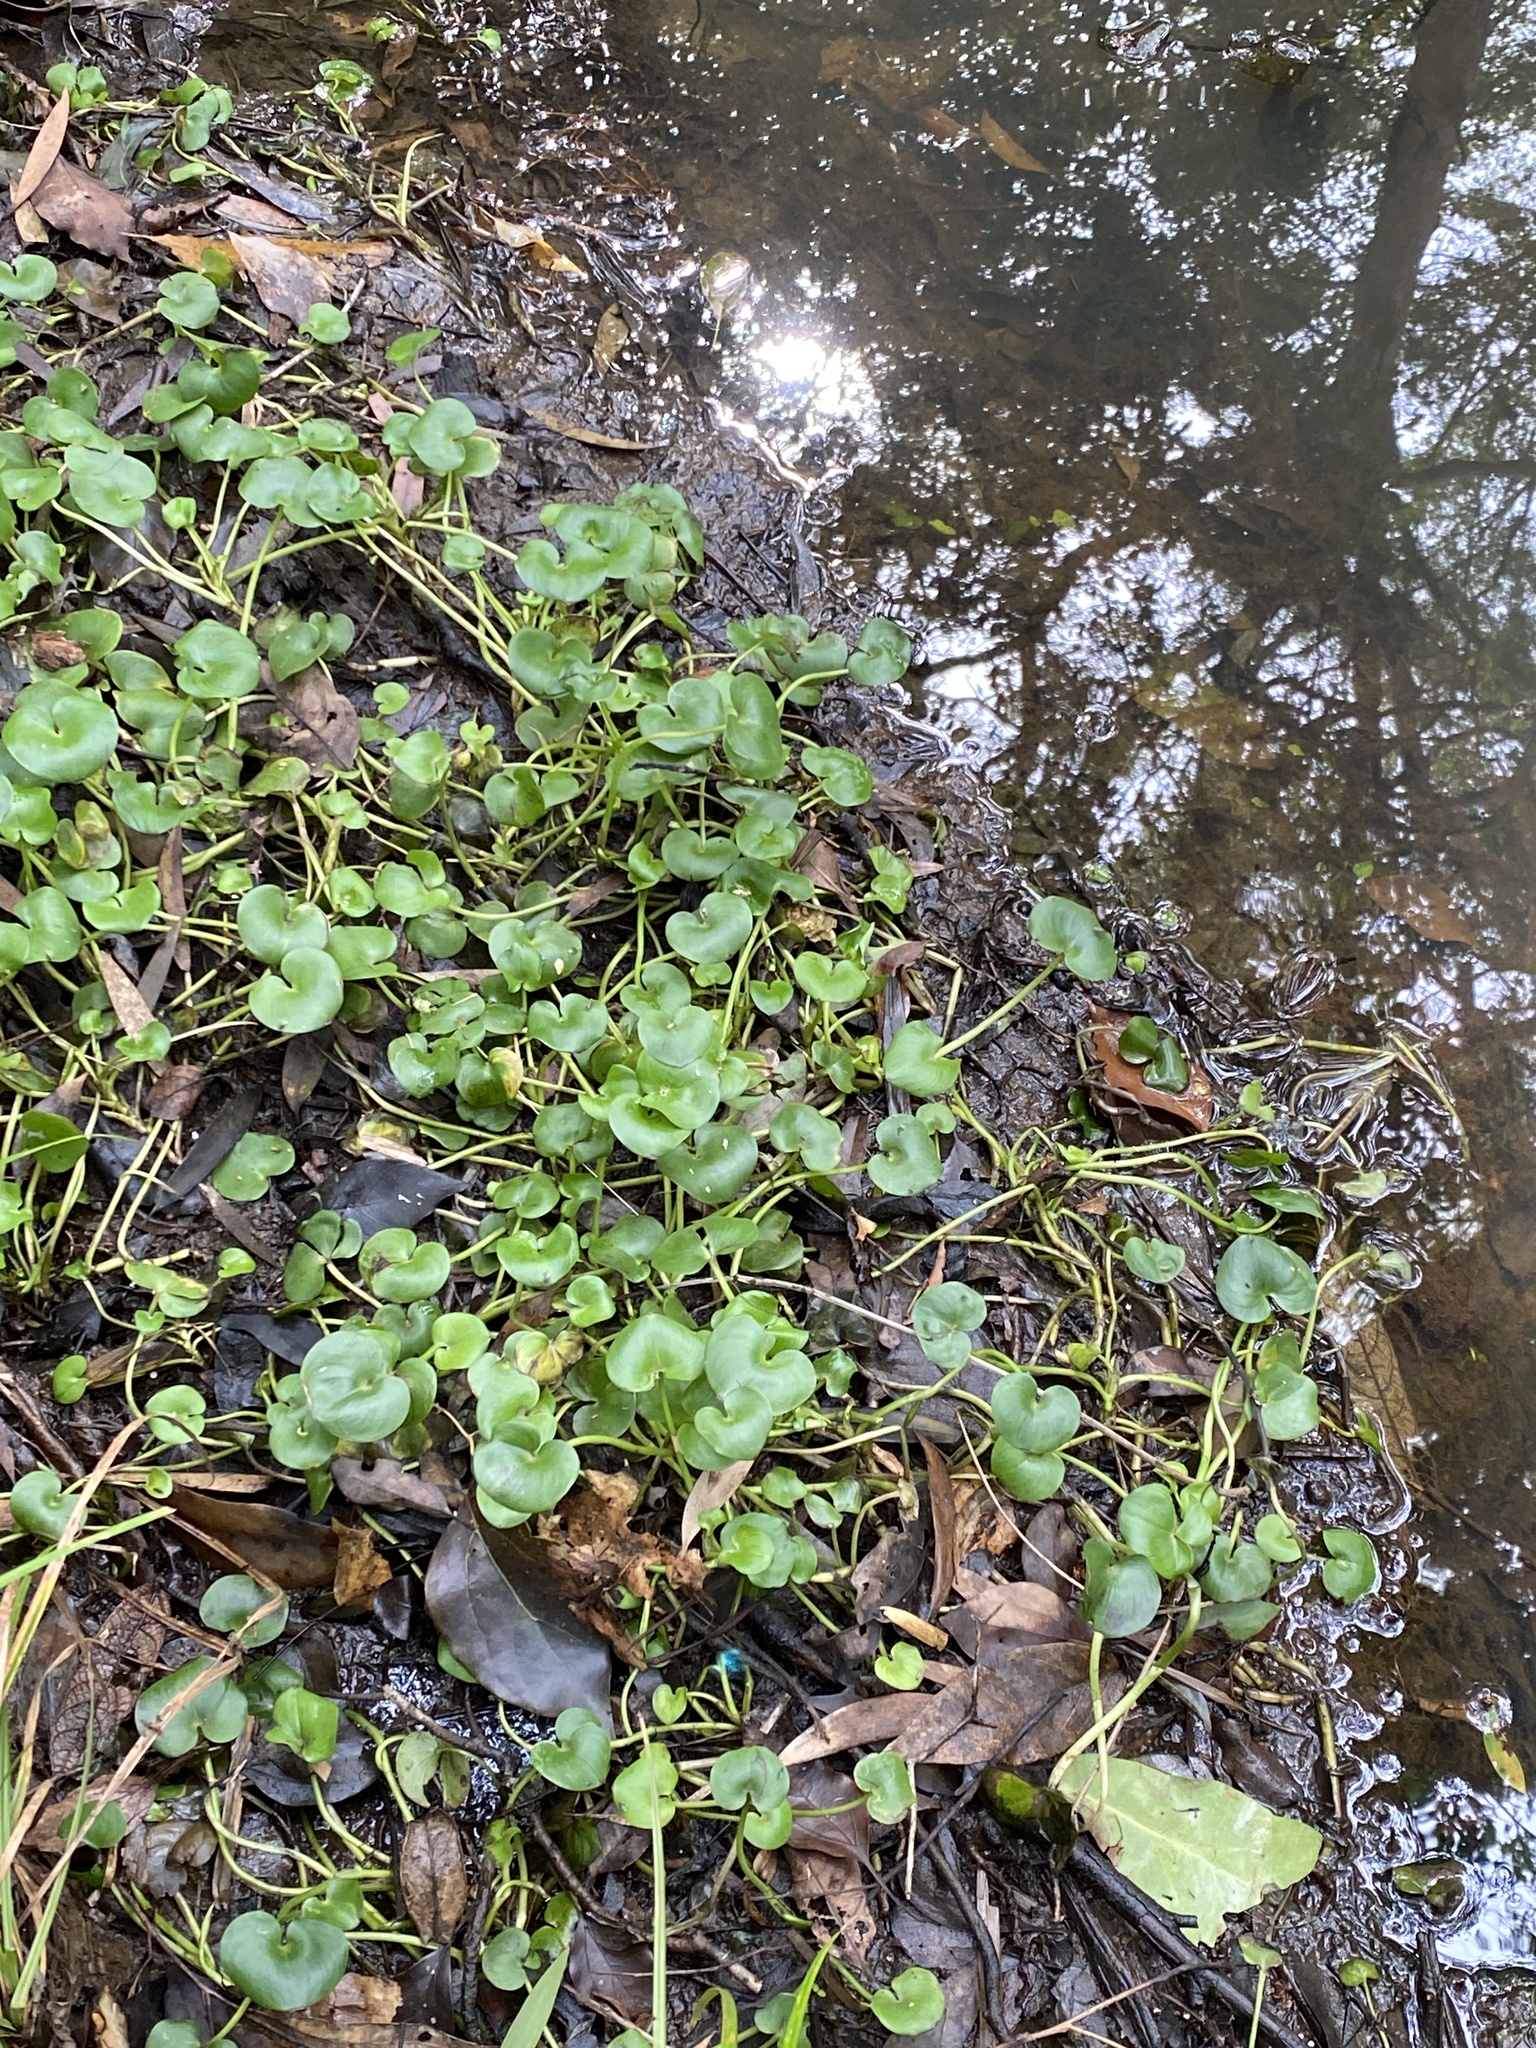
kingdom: Plantae
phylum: Tracheophyta
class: Liliopsida
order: Commelinales
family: Pontederiaceae
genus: Heteranthera
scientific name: Heteranthera reniformis
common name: Kidneyleaf mudplantain
